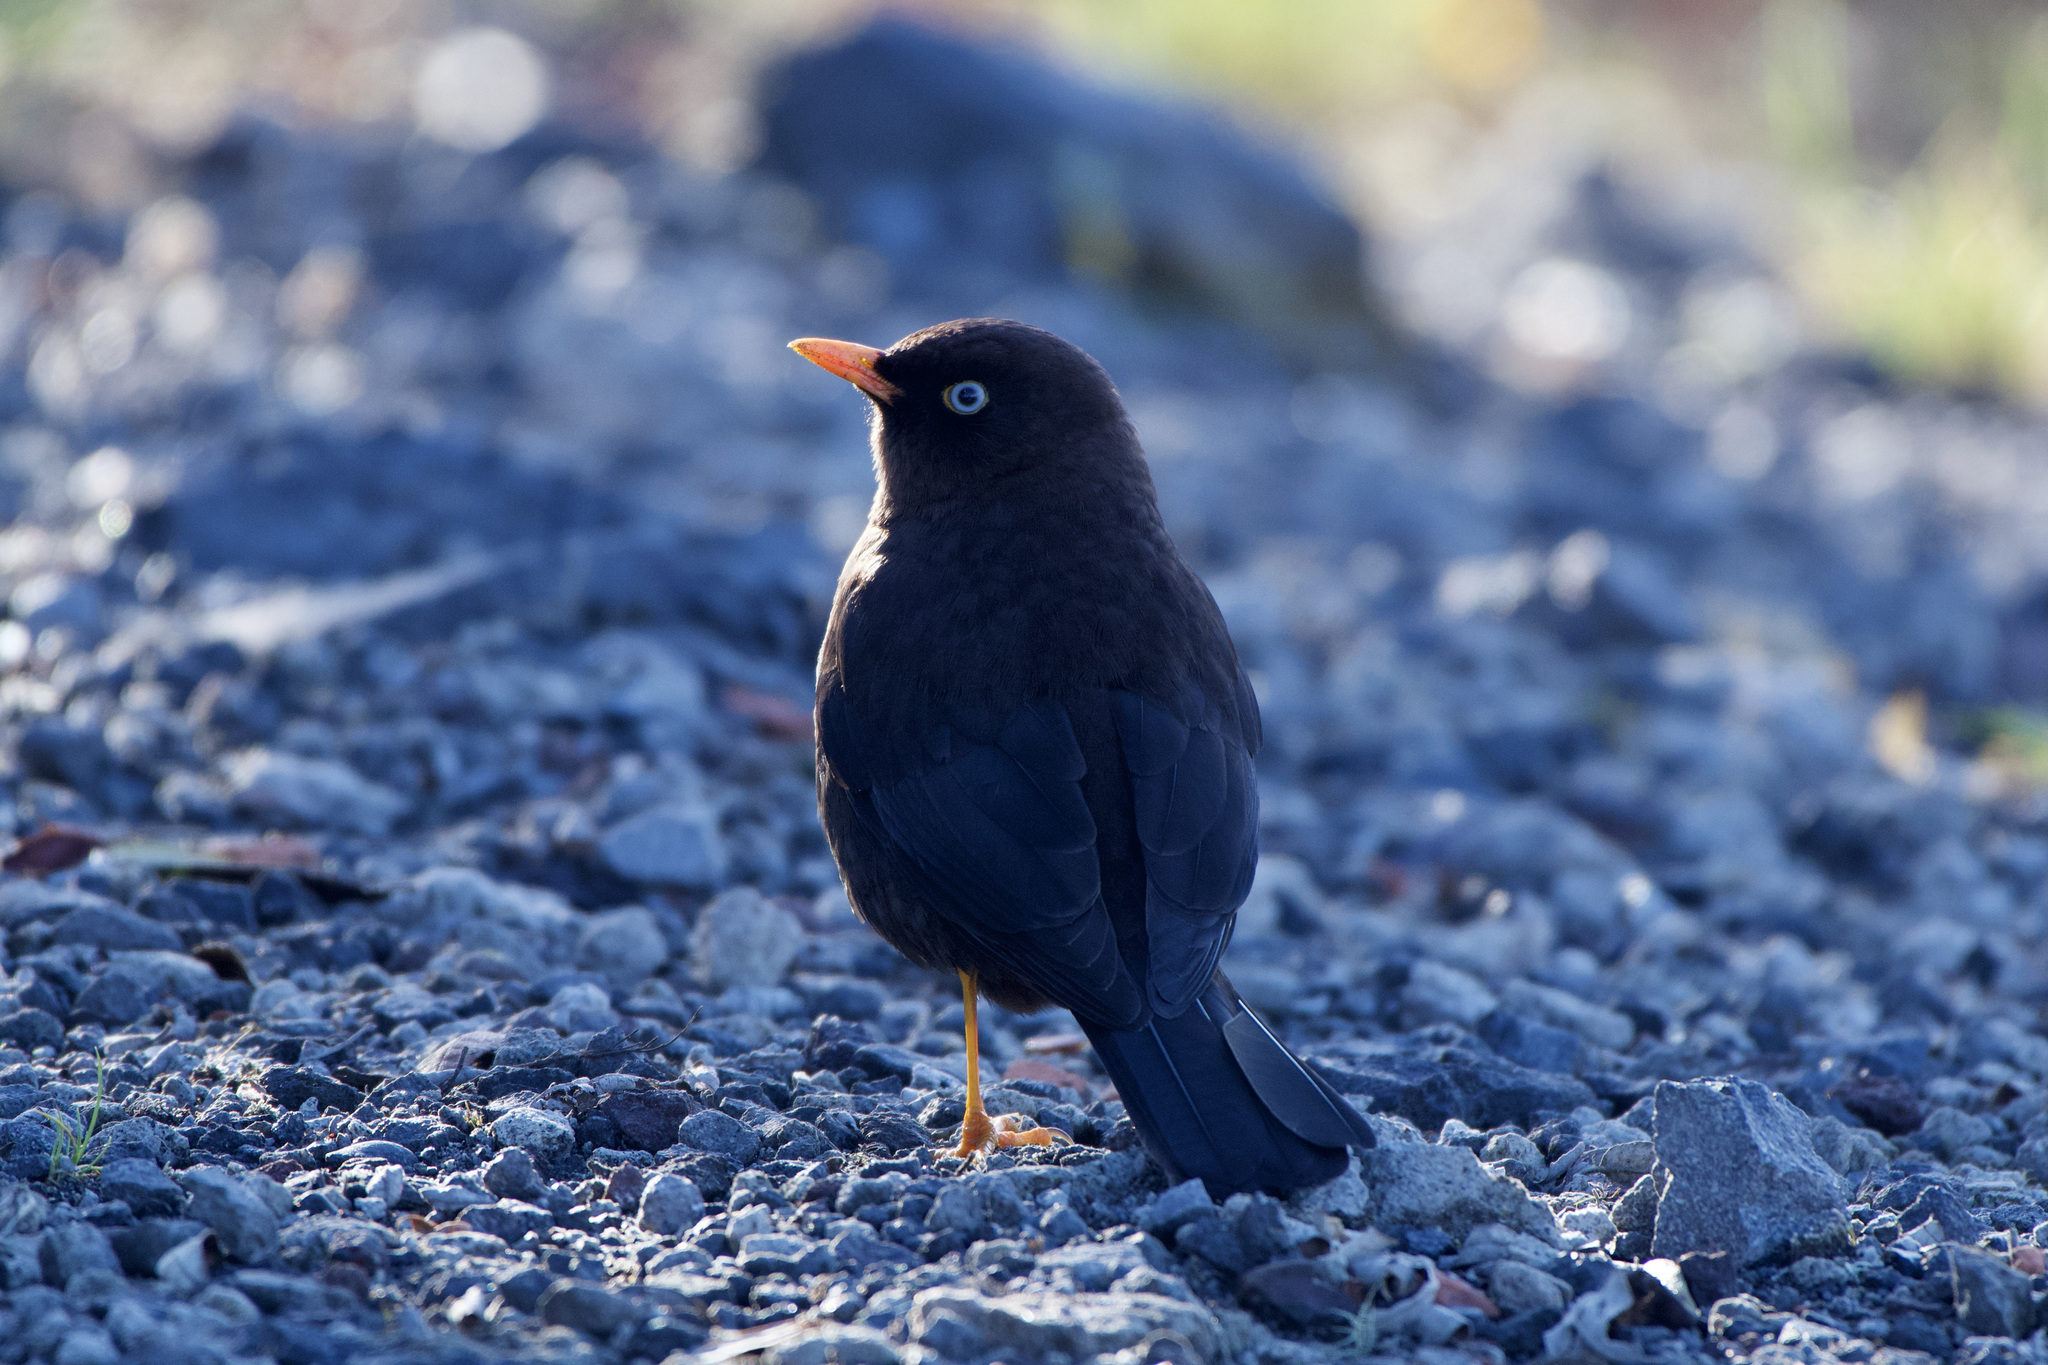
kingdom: Animalia
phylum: Chordata
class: Aves
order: Passeriformes
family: Turdidae
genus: Turdus
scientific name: Turdus nigrescens
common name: Sooty thrush
